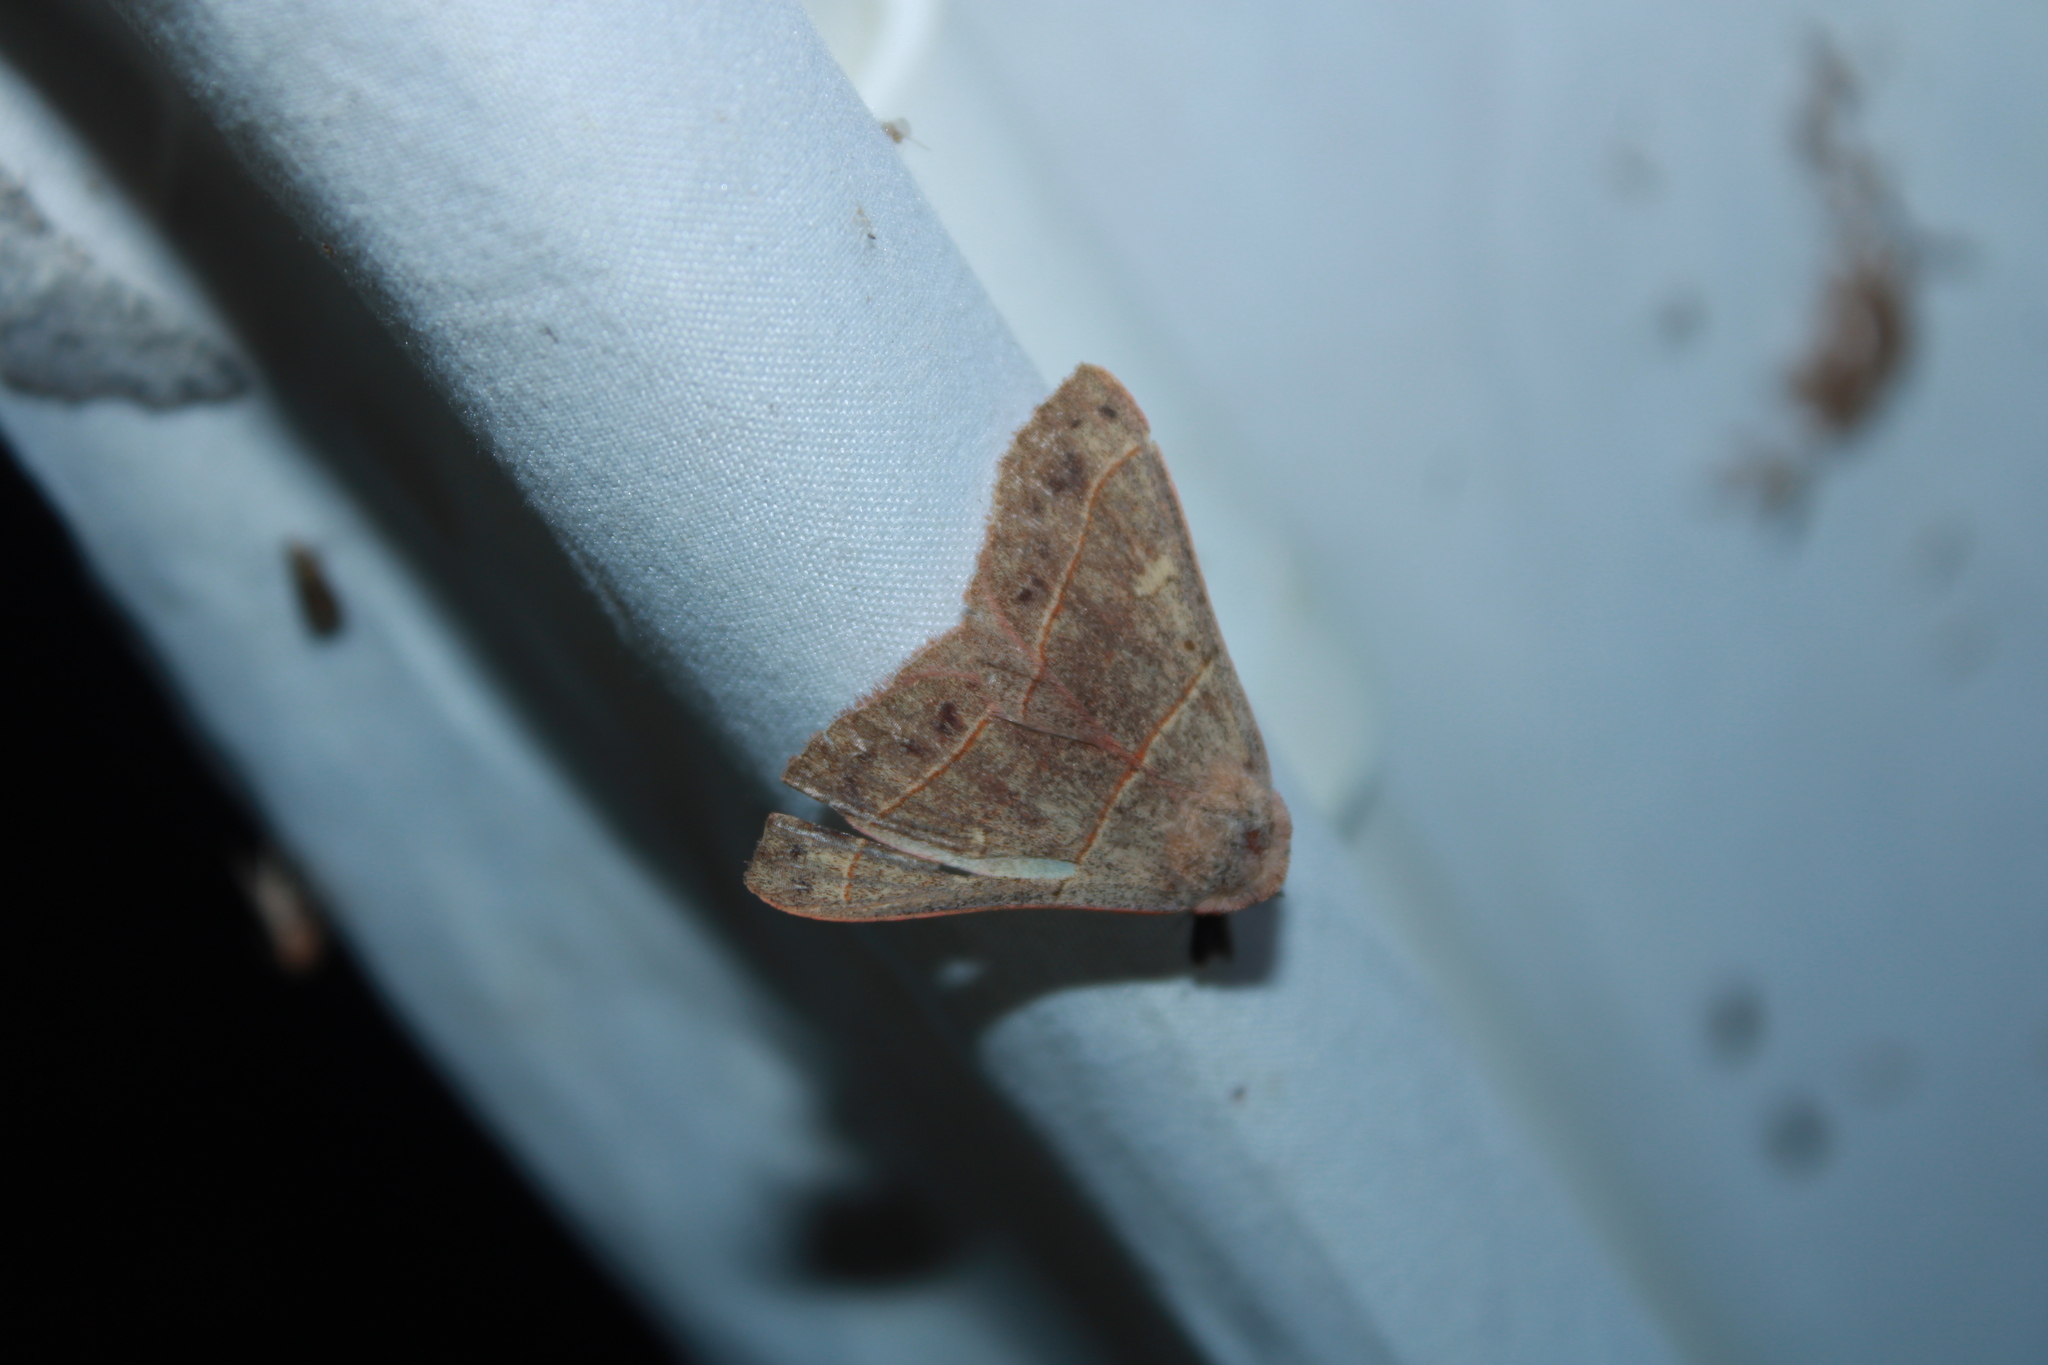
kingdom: Animalia
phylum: Arthropoda
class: Insecta
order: Lepidoptera
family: Erebidae
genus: Panopoda
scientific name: Panopoda rufimargo
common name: Red-lined panopoda moth
